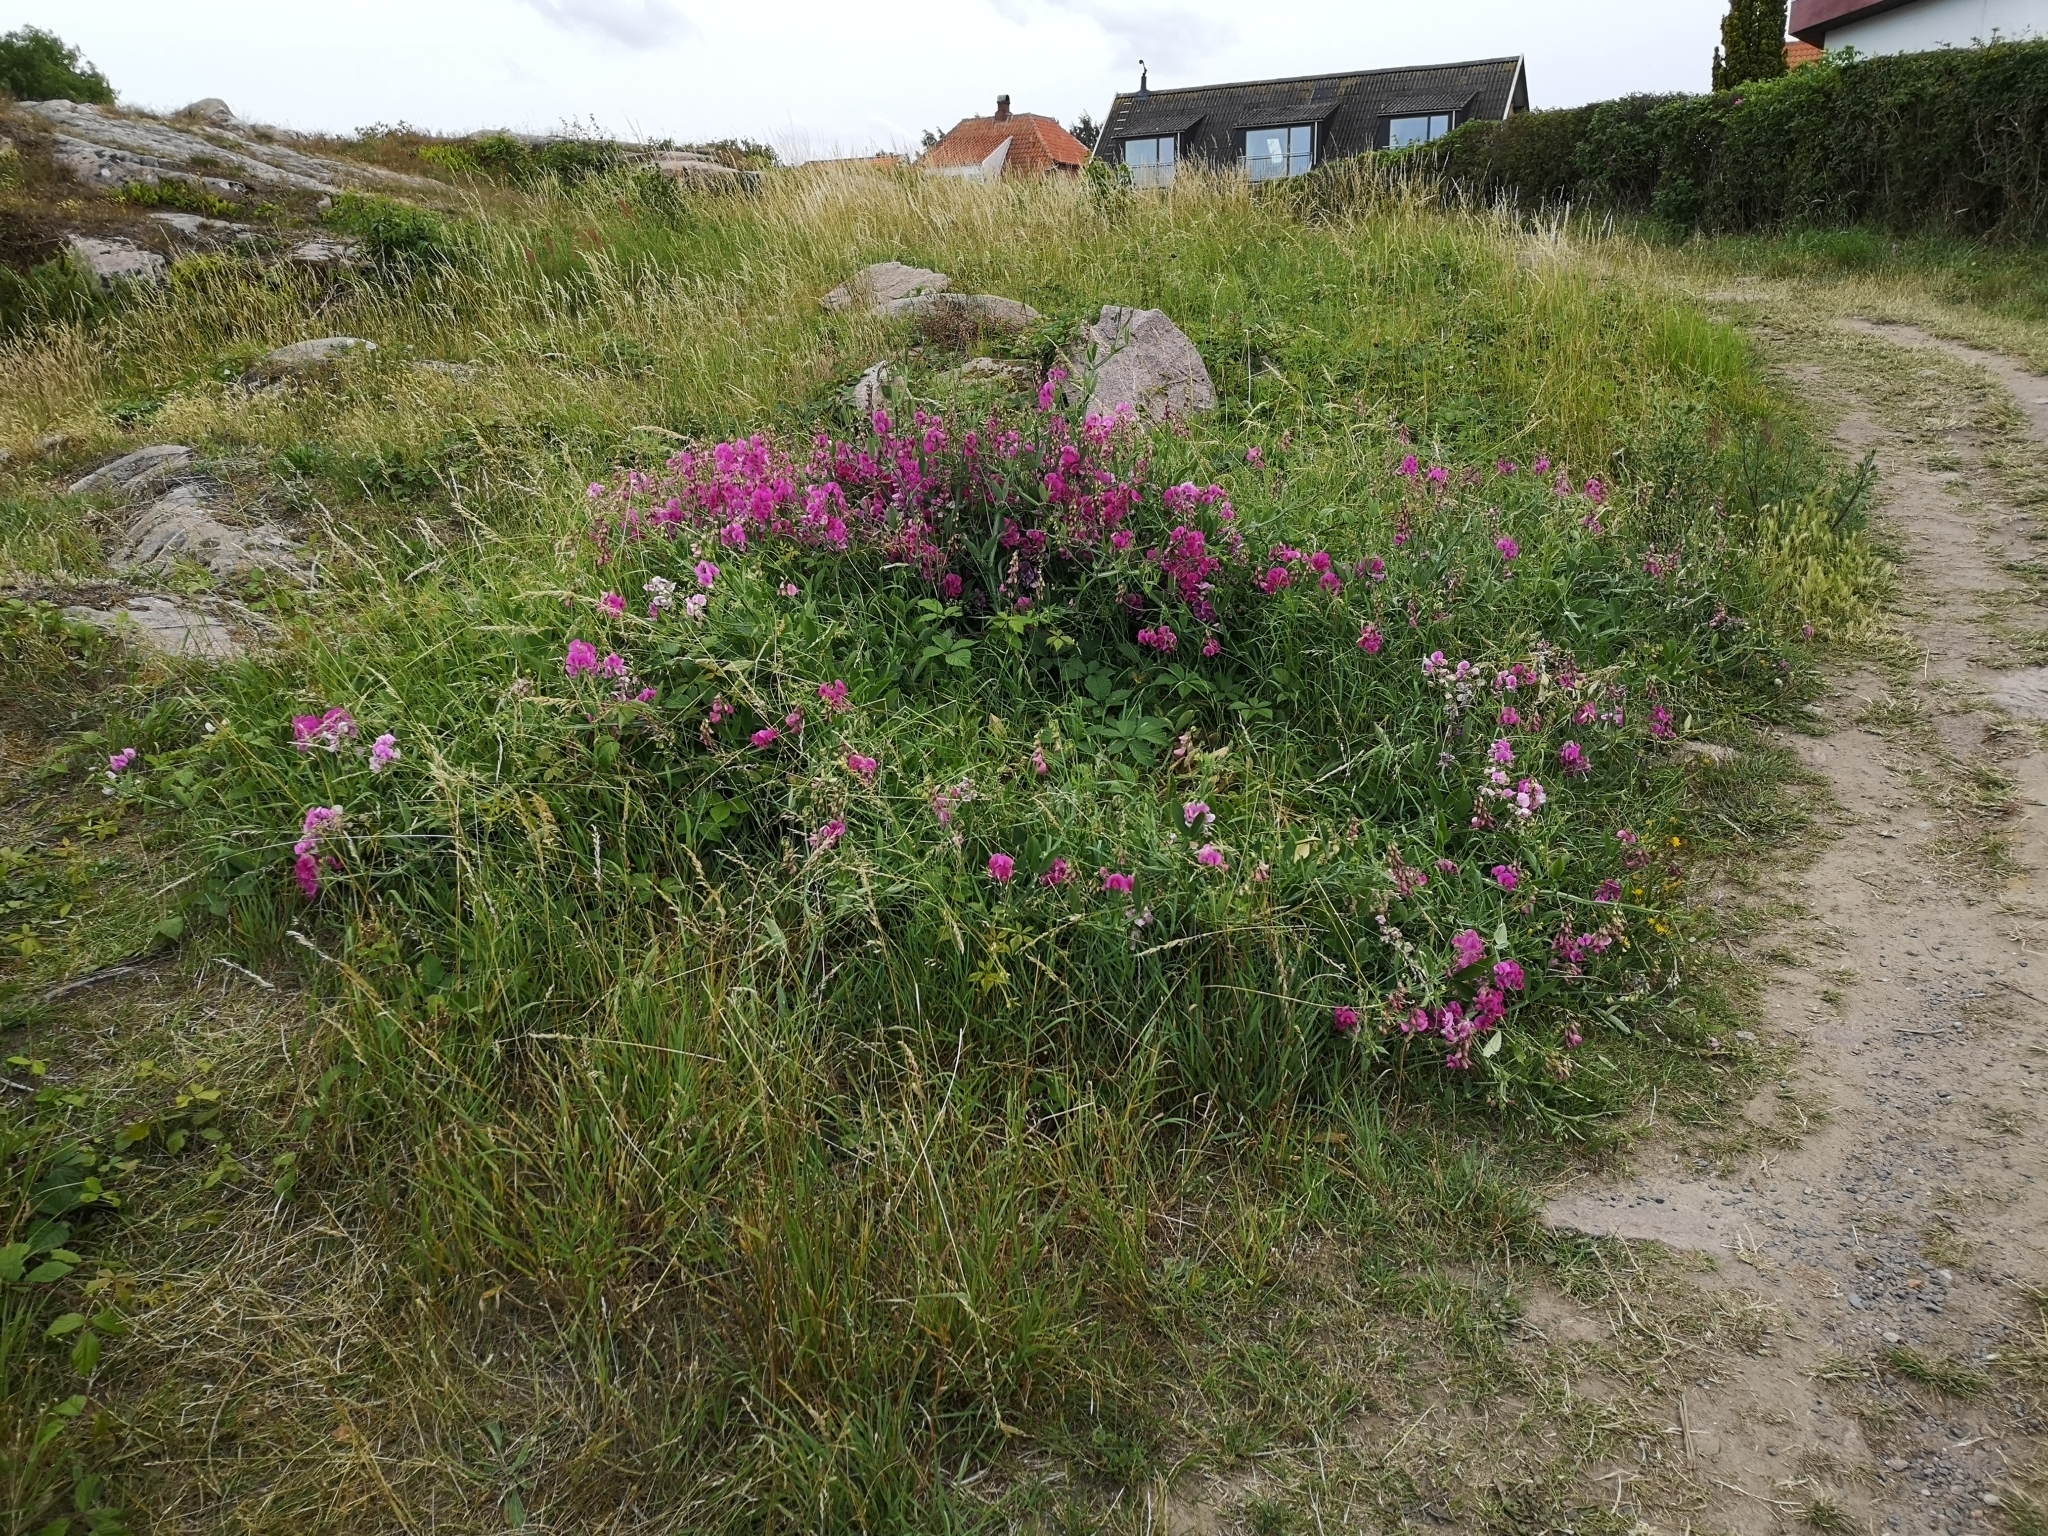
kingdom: Plantae
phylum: Tracheophyta
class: Magnoliopsida
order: Fabales
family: Fabaceae
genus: Lathyrus
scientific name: Lathyrus latifolius
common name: Perennial pea
